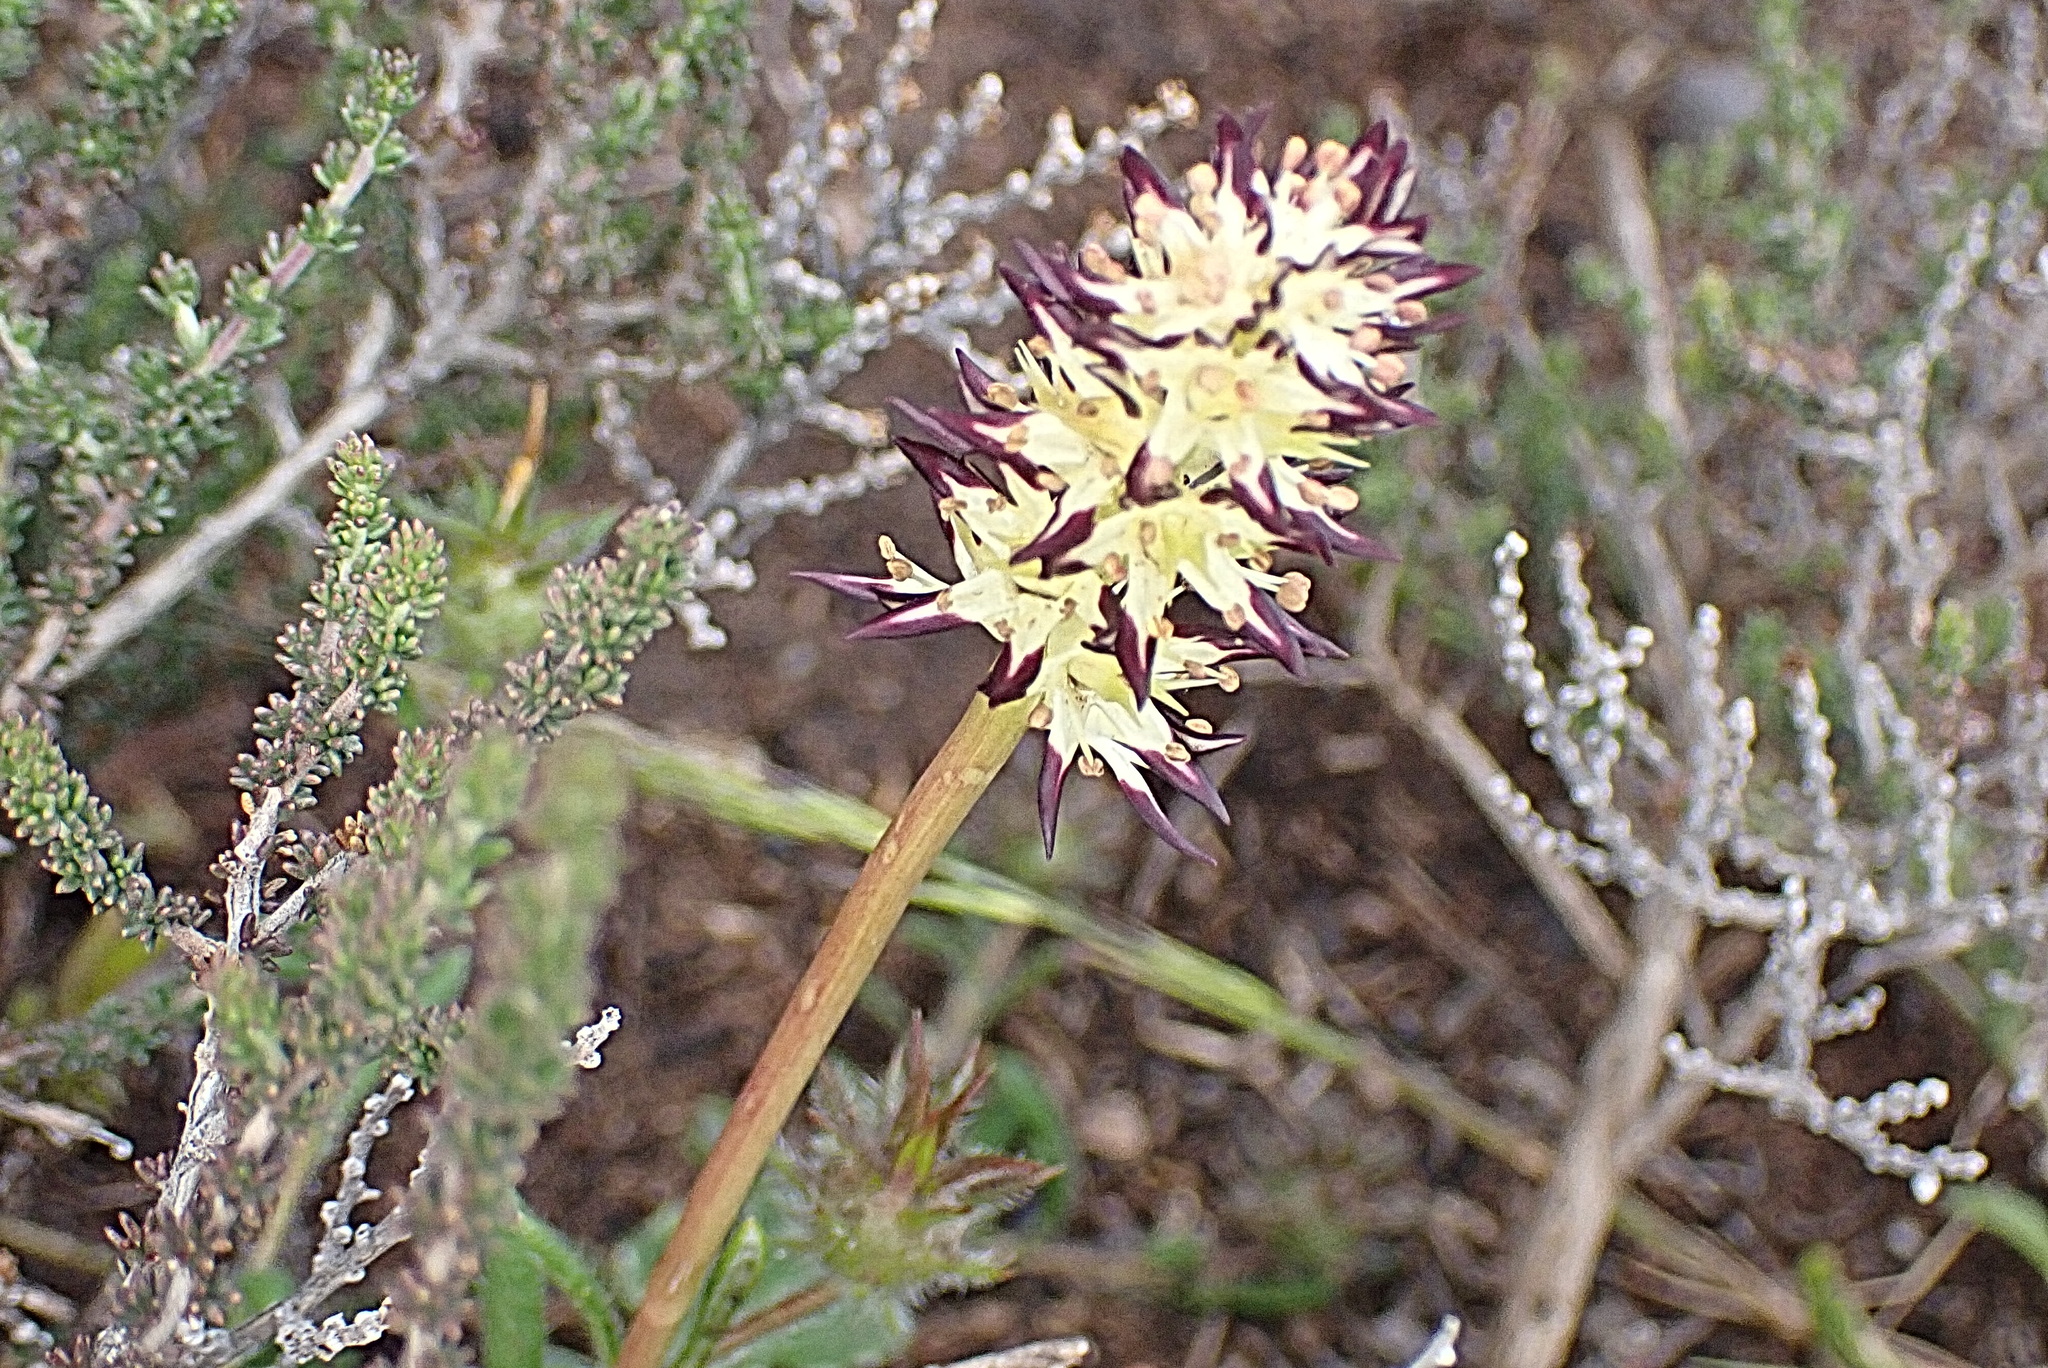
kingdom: Plantae
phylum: Tracheophyta
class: Liliopsida
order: Liliales
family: Colchicaceae
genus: Wurmbea
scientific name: Wurmbea spicata
